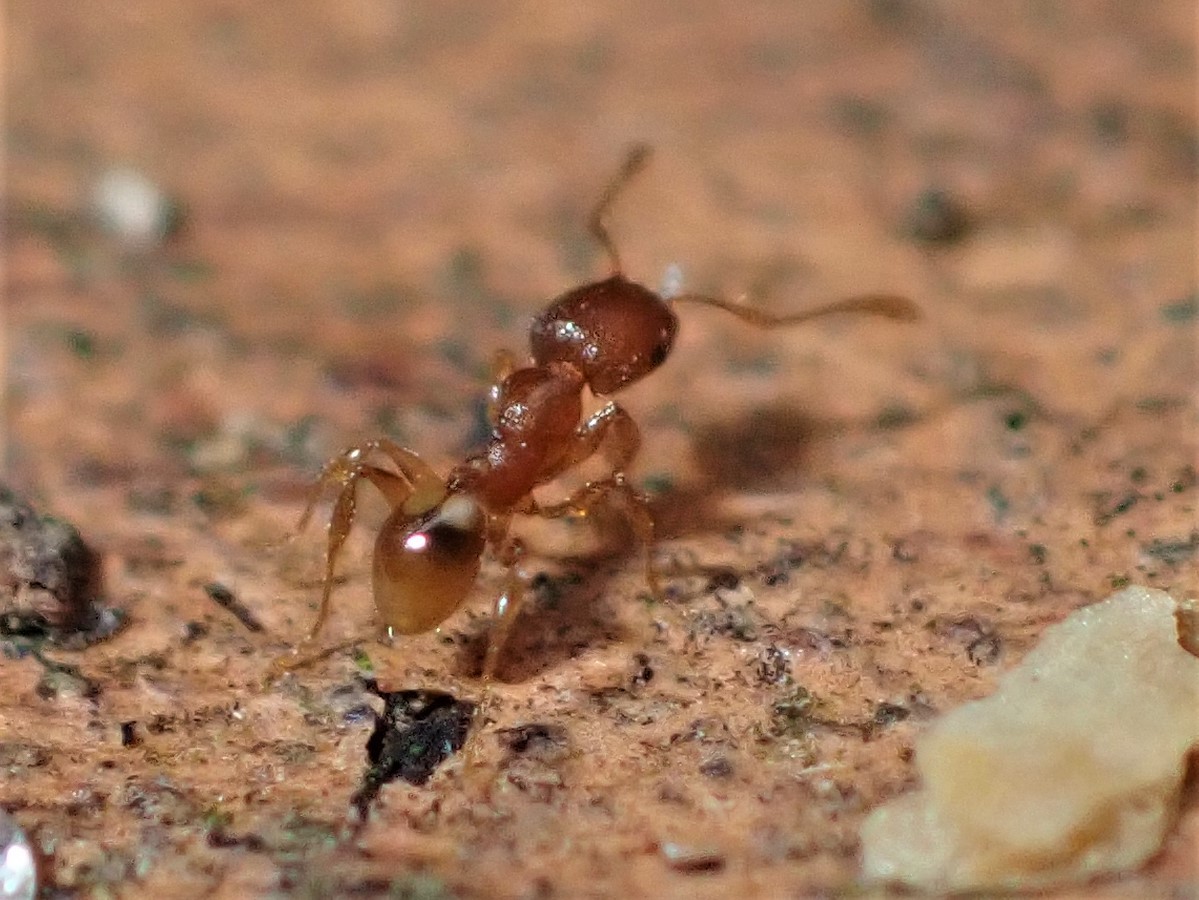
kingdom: Animalia
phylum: Arthropoda
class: Insecta
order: Hymenoptera
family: Formicidae
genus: Pheidole
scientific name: Pheidole rugosula
